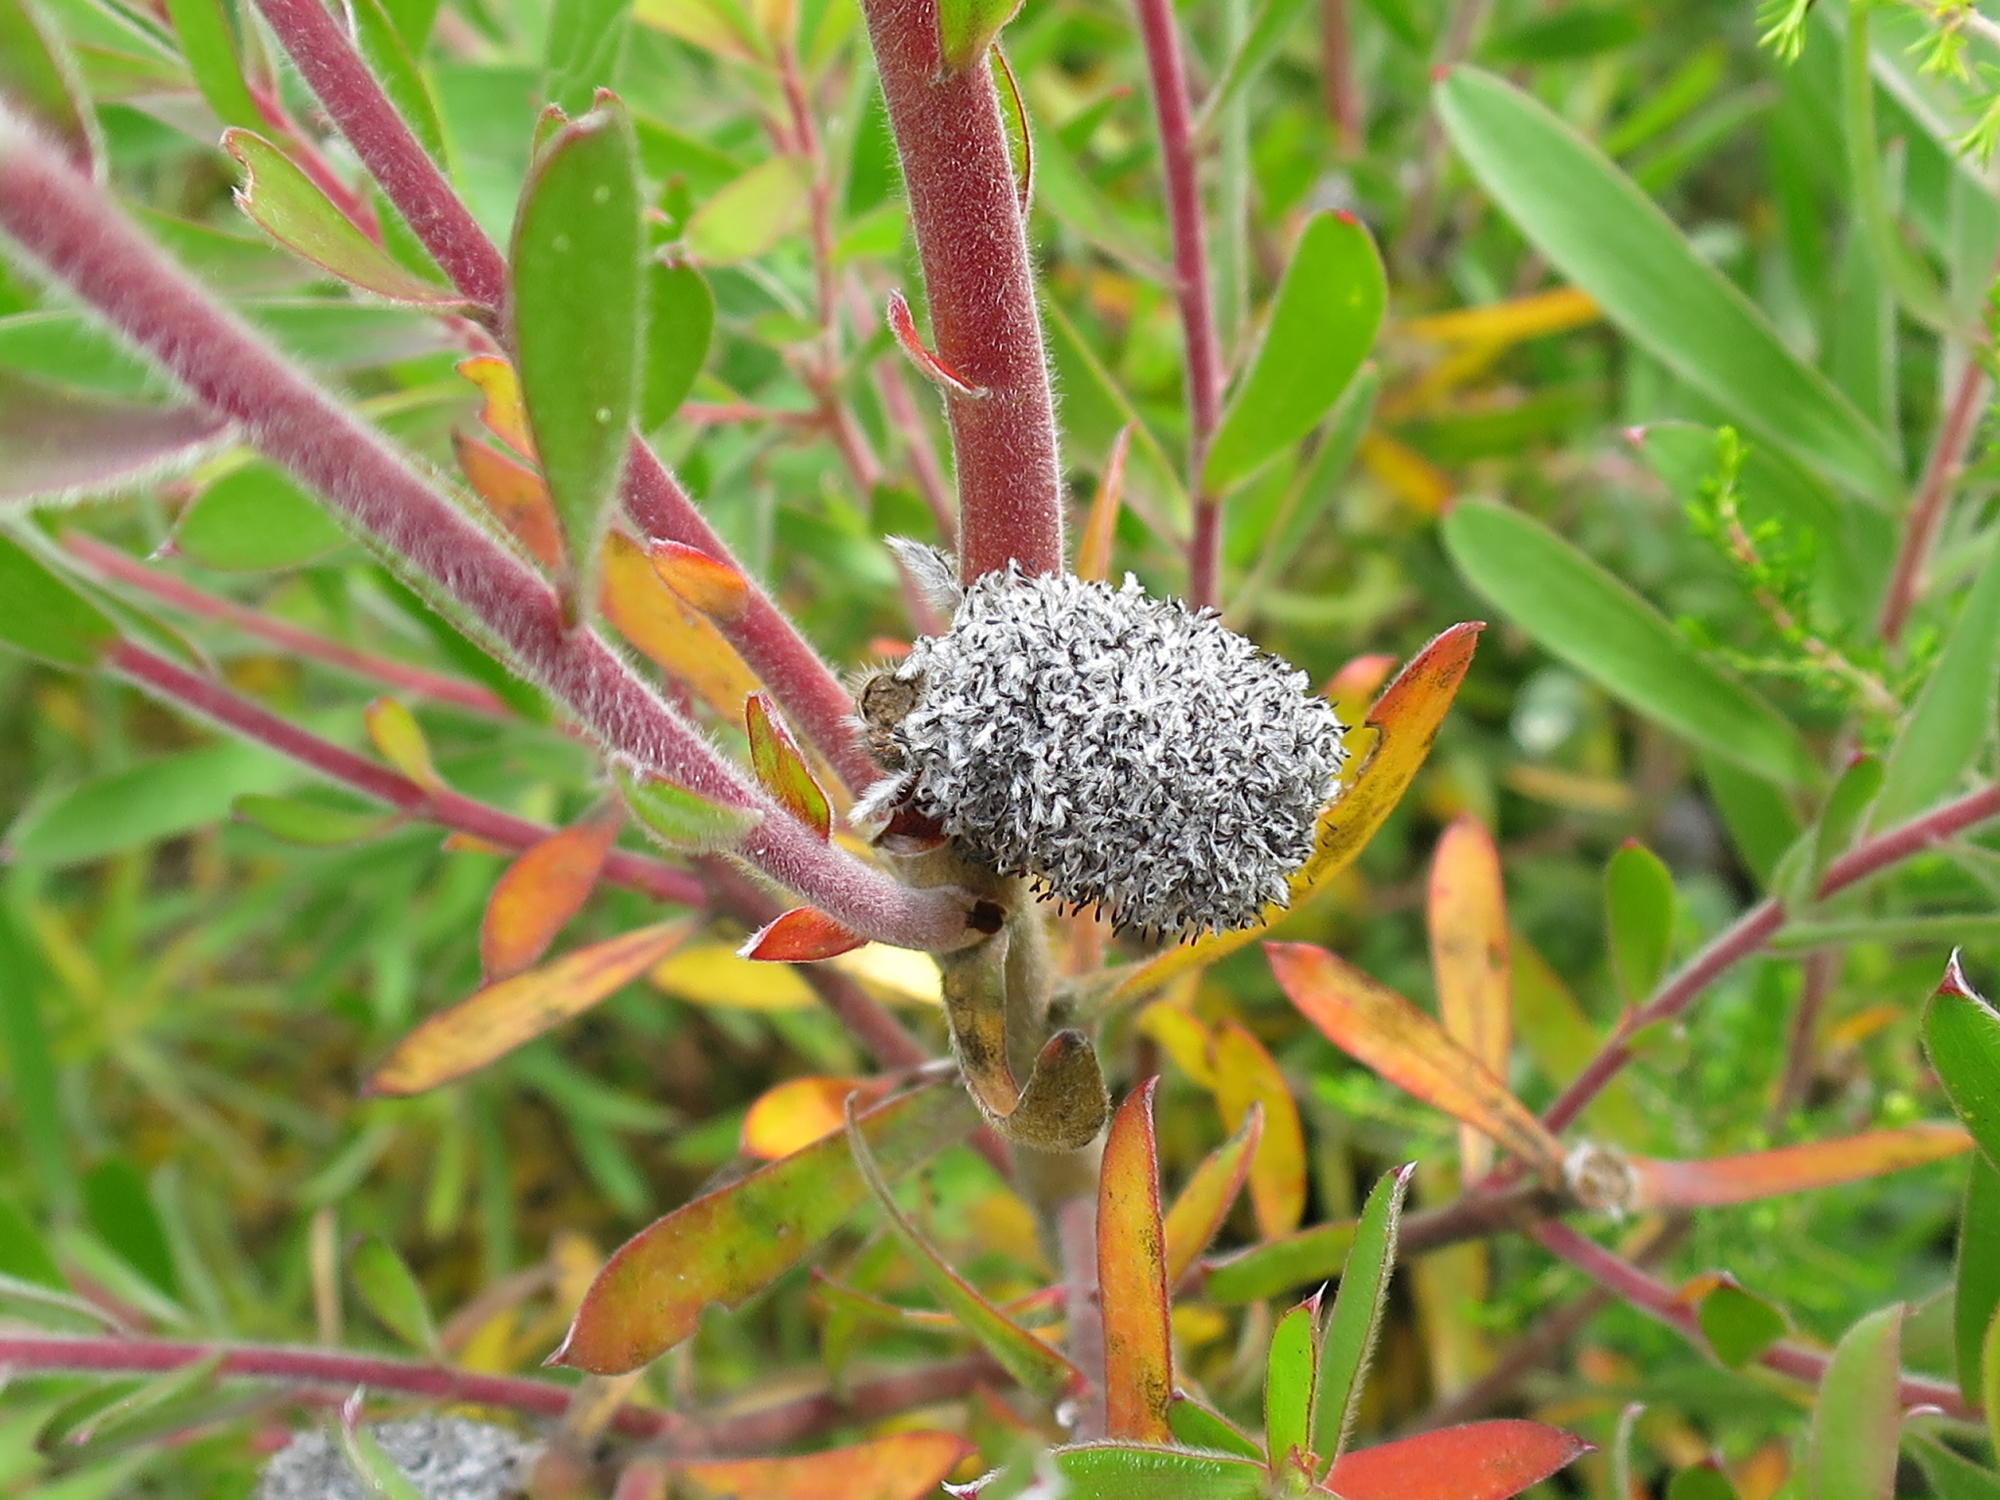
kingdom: Plantae
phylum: Tracheophyta
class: Magnoliopsida
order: Proteales
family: Proteaceae
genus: Leucadendron
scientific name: Leucadendron conicum
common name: Garden route conebush
